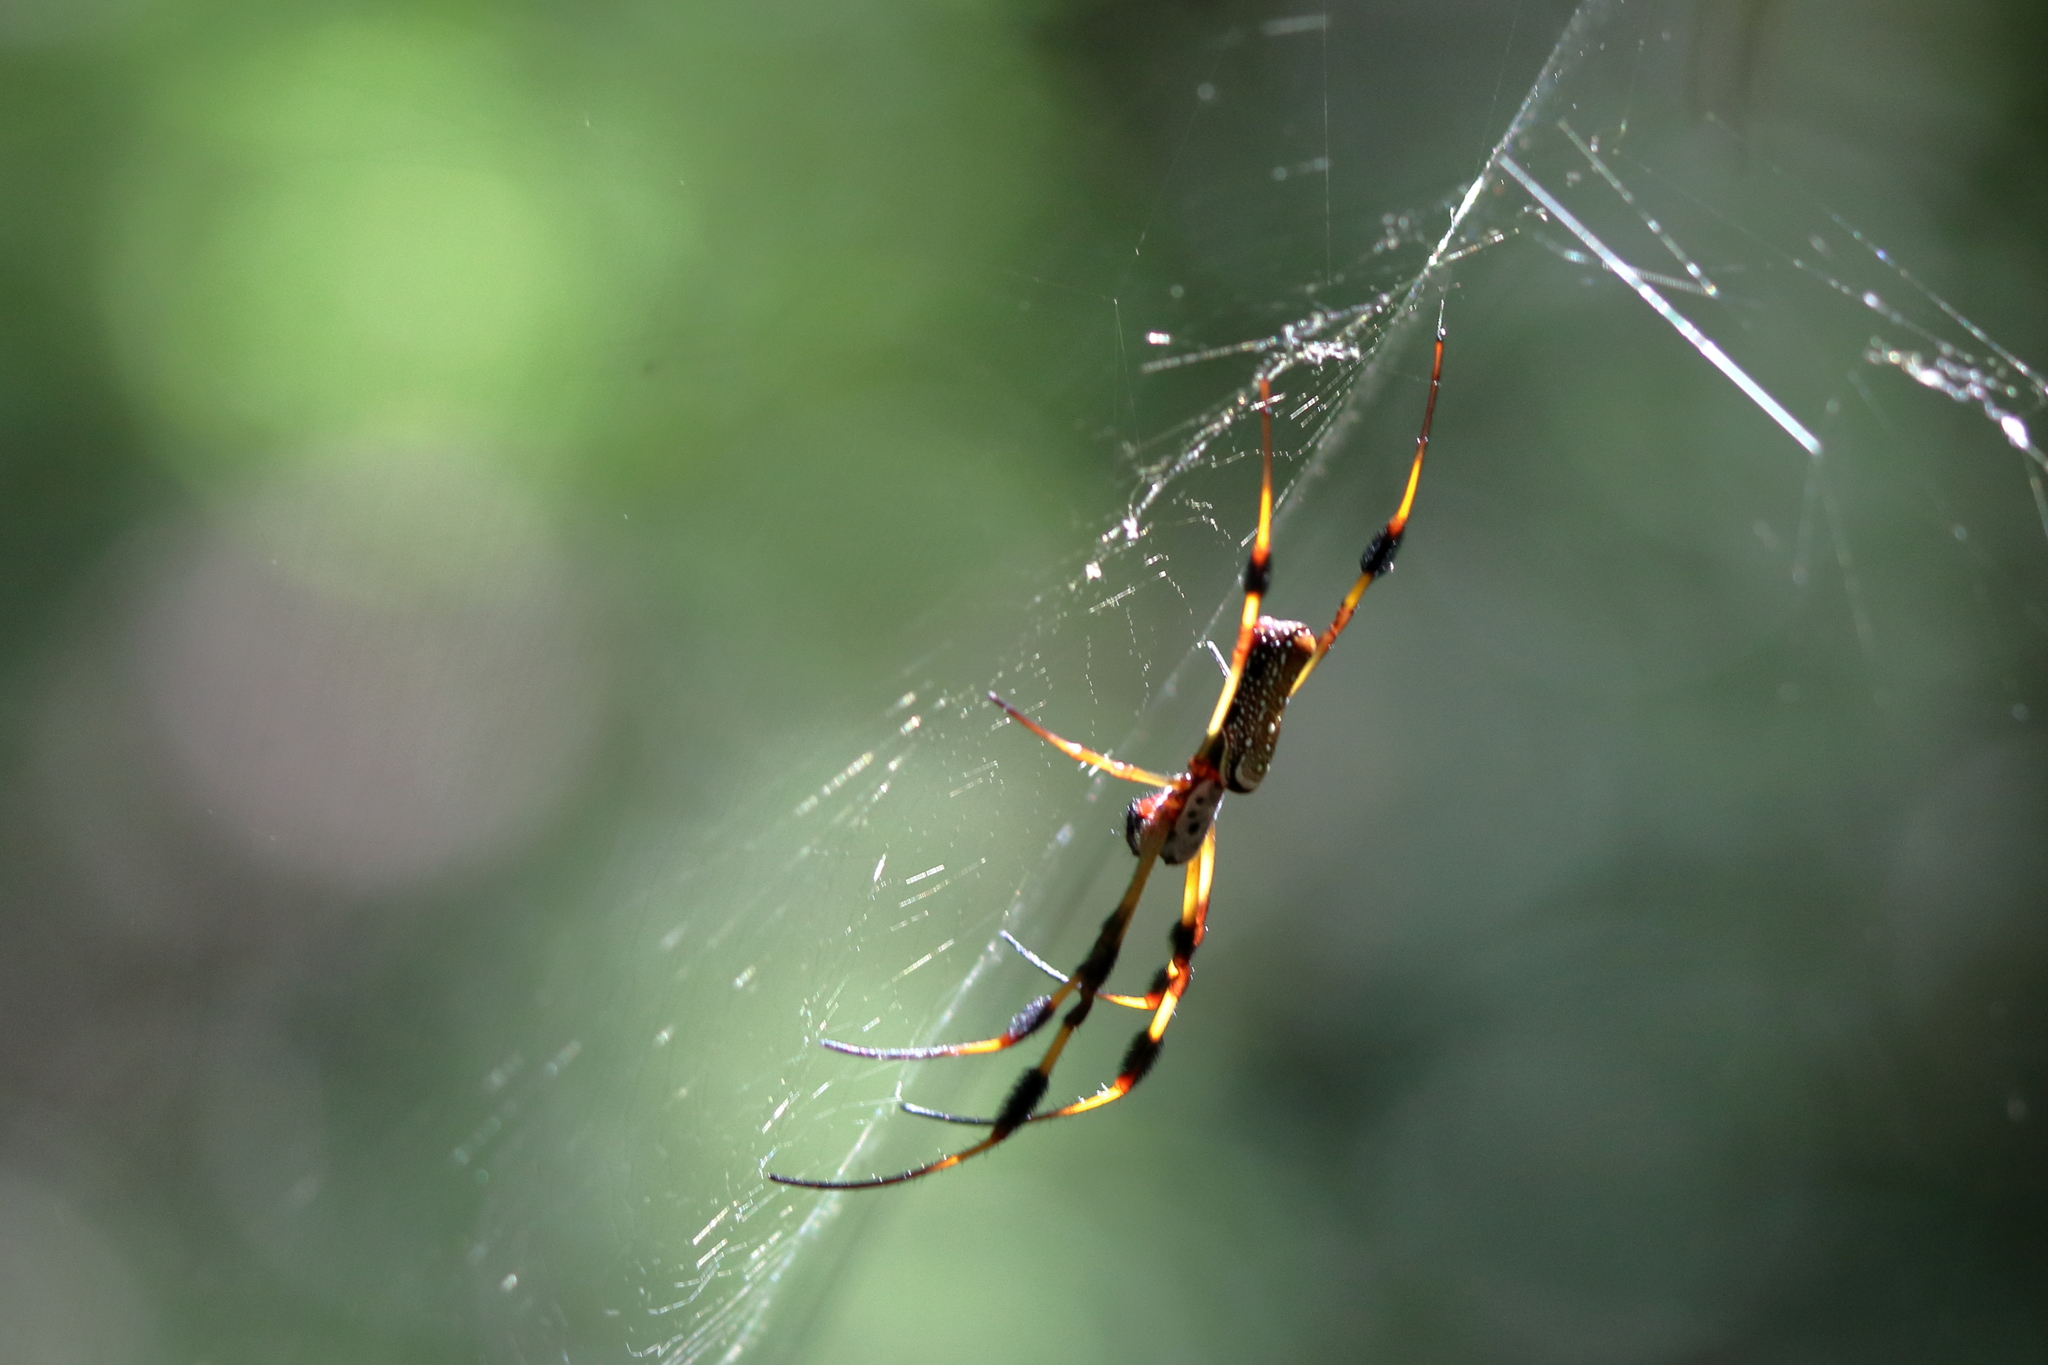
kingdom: Animalia
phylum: Arthropoda
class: Arachnida
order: Araneae
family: Araneidae
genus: Trichonephila
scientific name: Trichonephila clavipes
